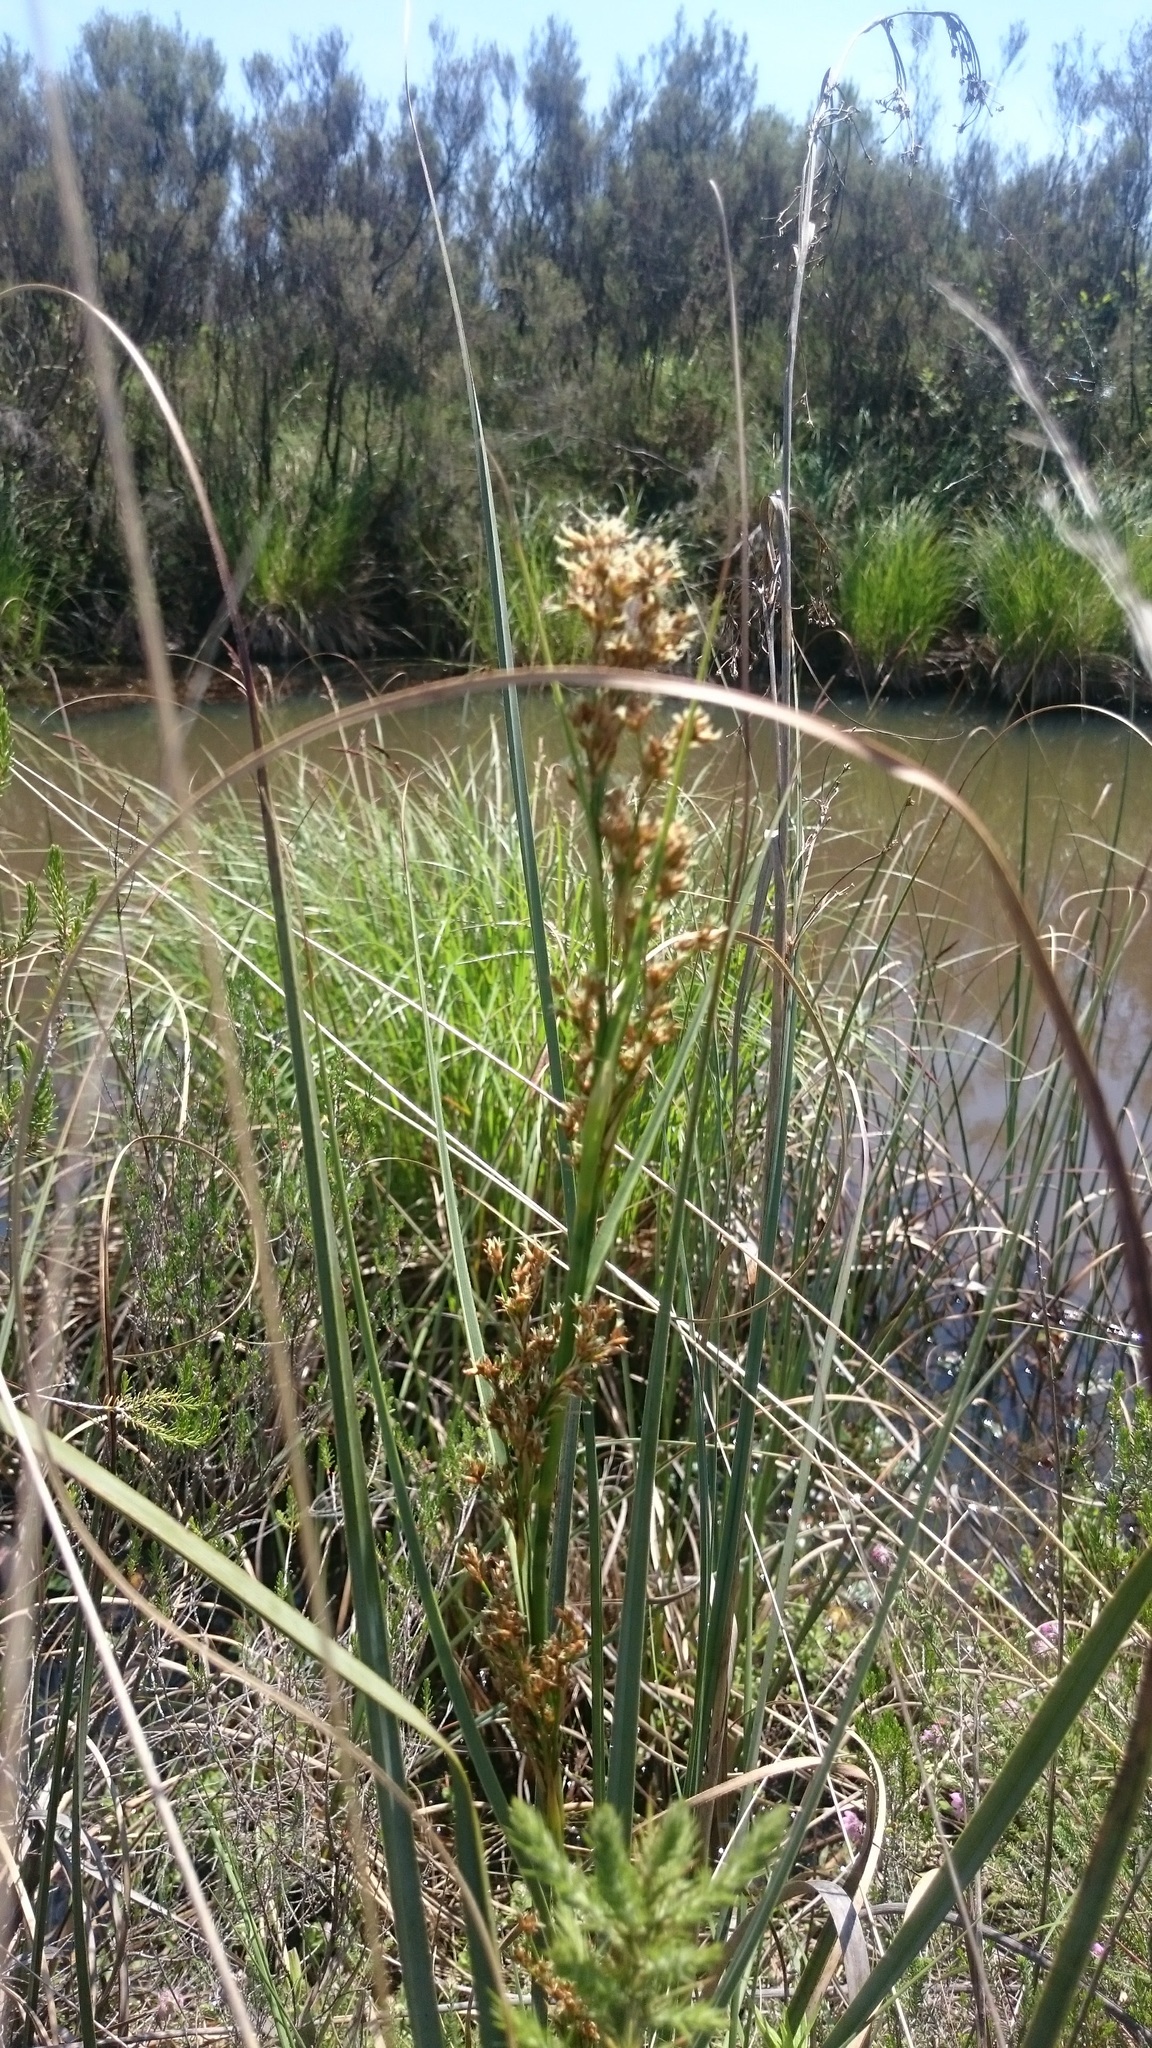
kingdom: Plantae
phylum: Tracheophyta
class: Liliopsida
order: Poales
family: Cyperaceae
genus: Cladium
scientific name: Cladium mariscus
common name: Great fen-sedge
